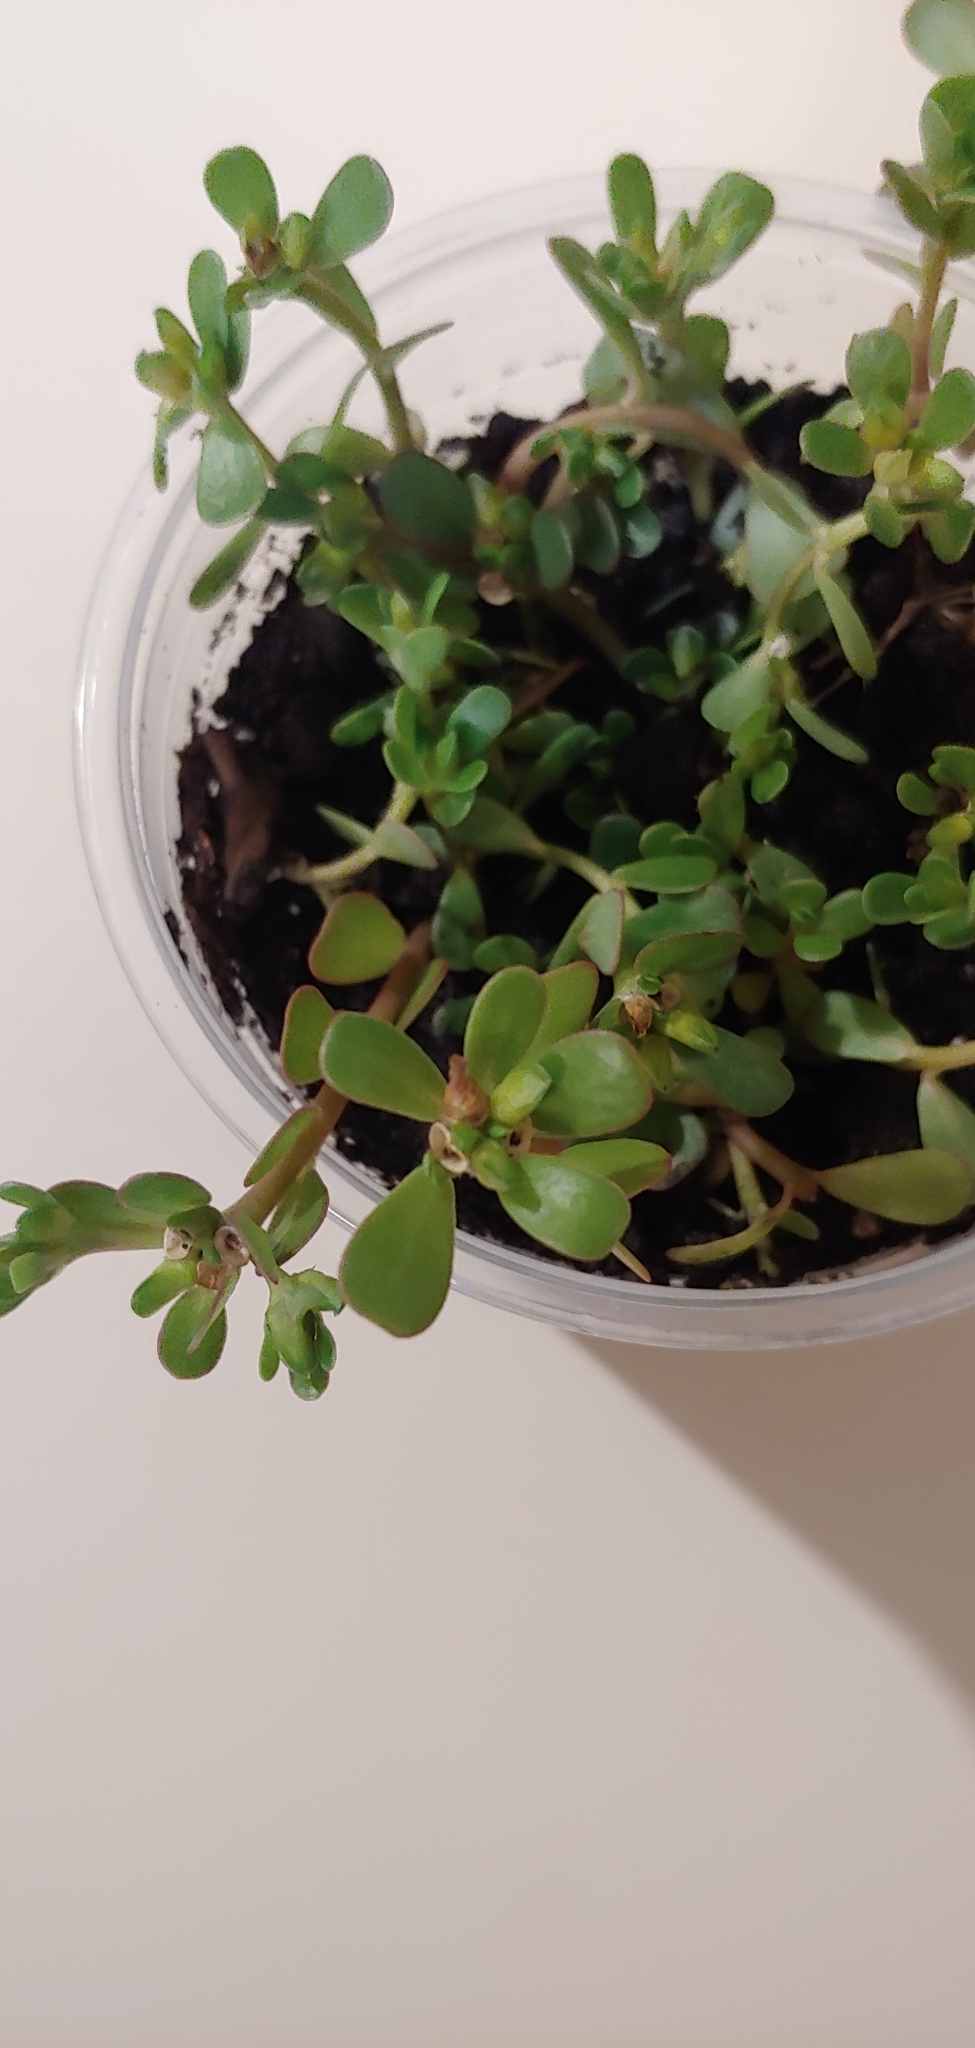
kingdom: Plantae
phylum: Tracheophyta
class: Magnoliopsida
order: Caryophyllales
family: Portulacaceae
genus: Portulaca
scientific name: Portulaca oleracea
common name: Common purslane
